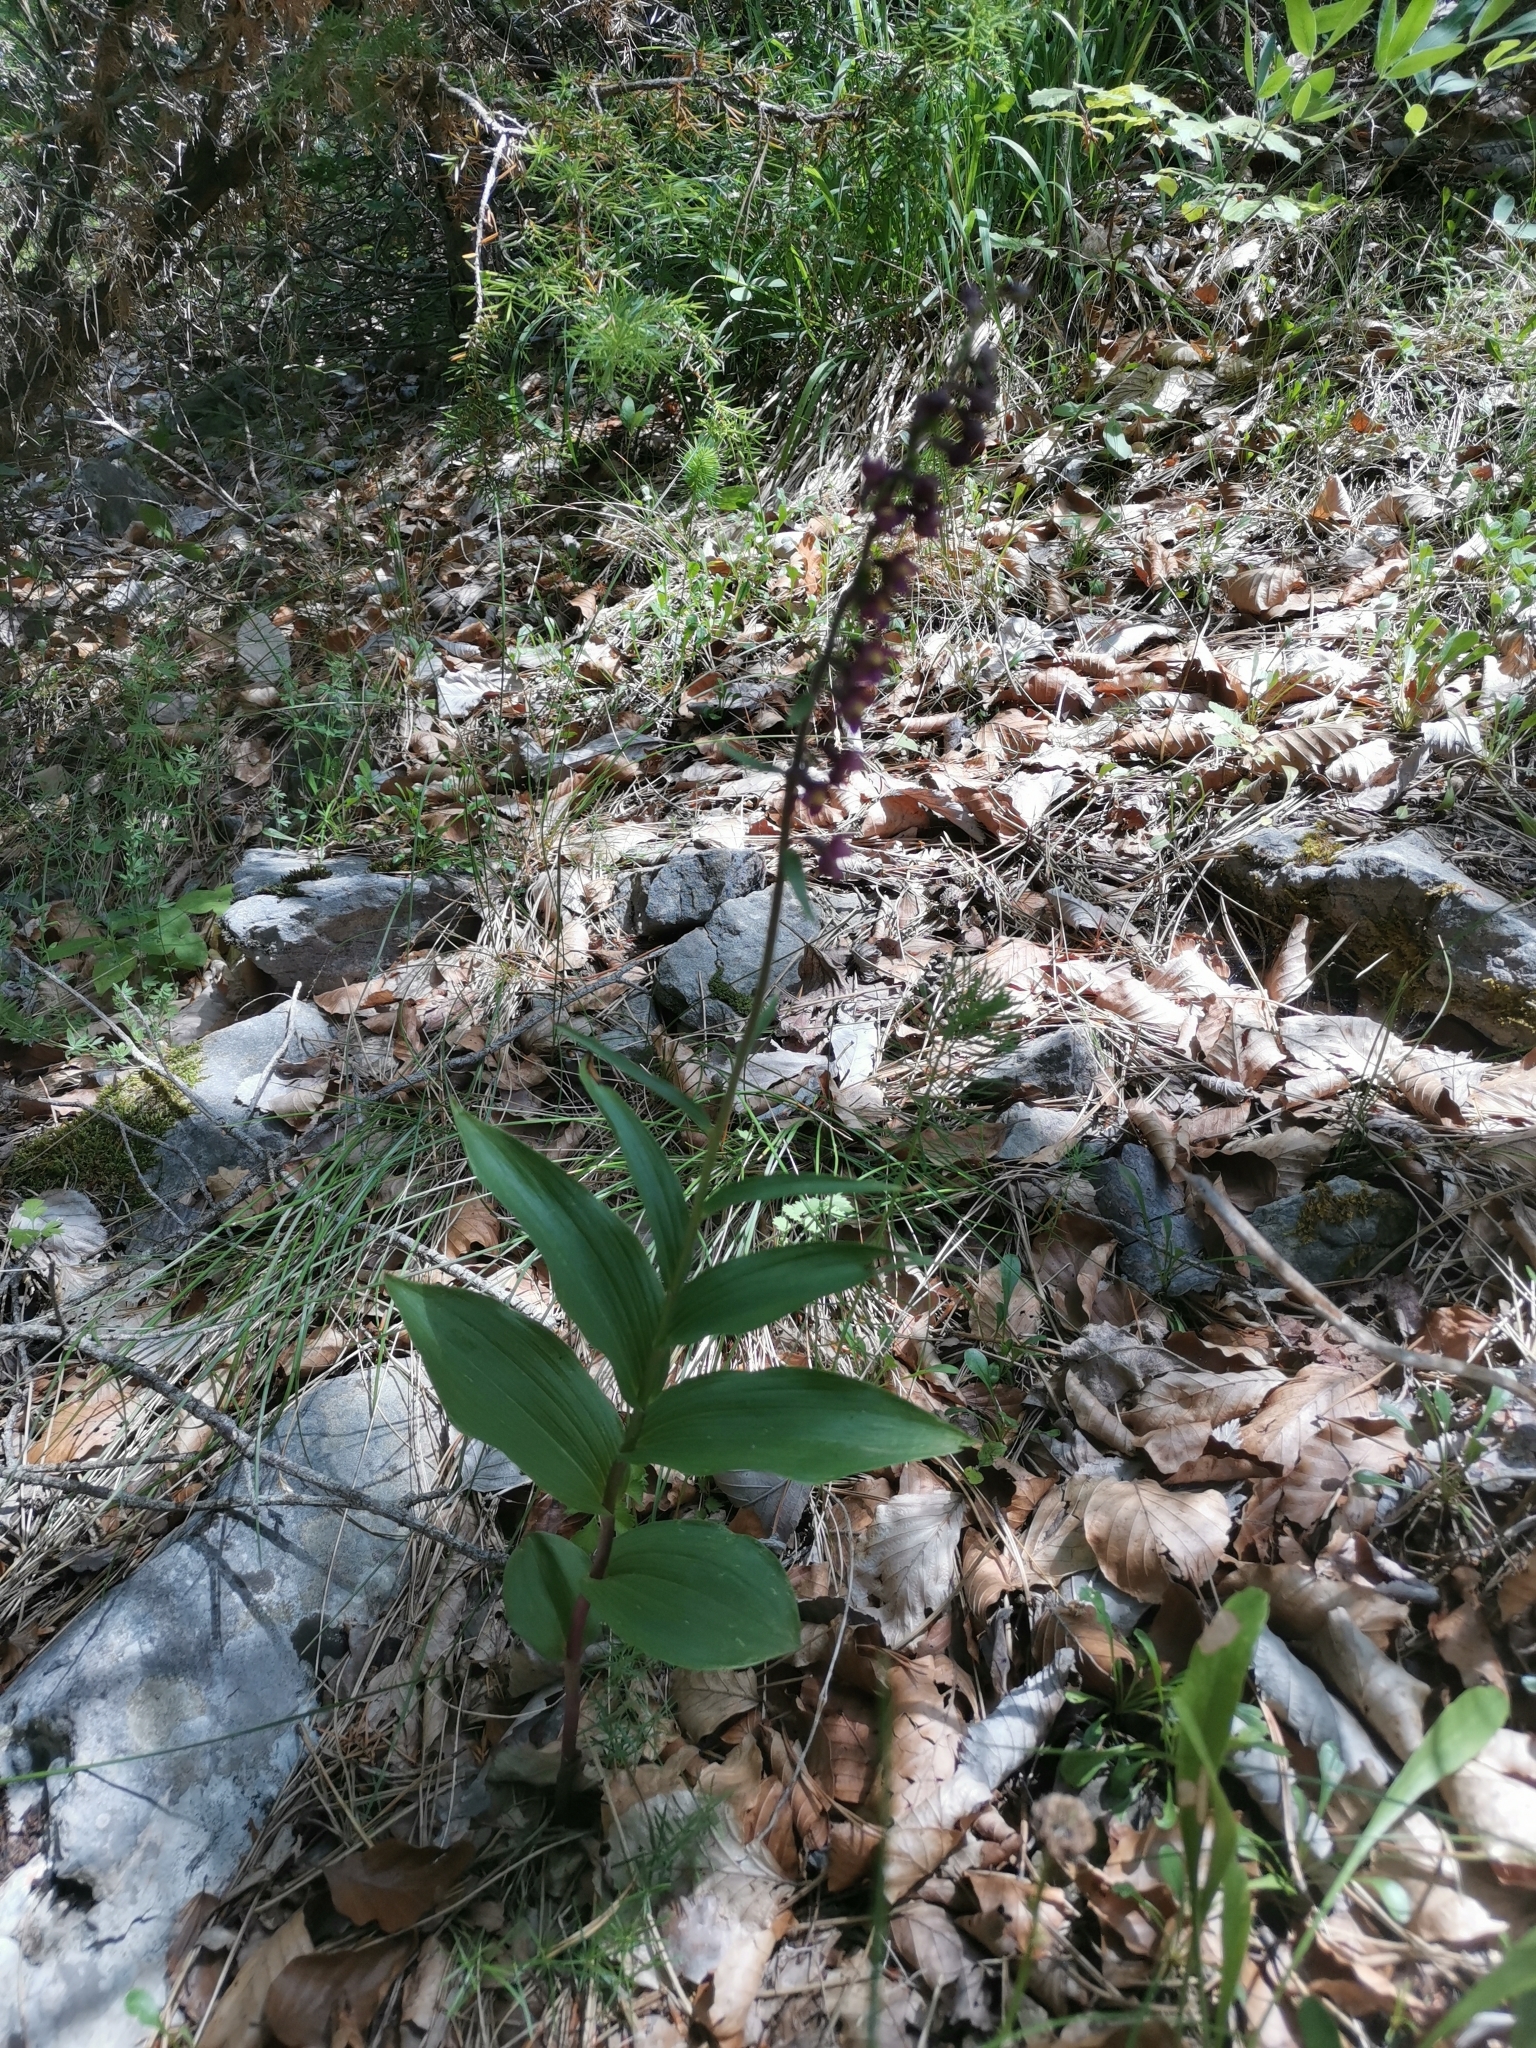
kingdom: Plantae
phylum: Tracheophyta
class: Liliopsida
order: Asparagales
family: Orchidaceae
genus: Epipactis
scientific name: Epipactis atrorubens
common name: Dark-red helleborine
